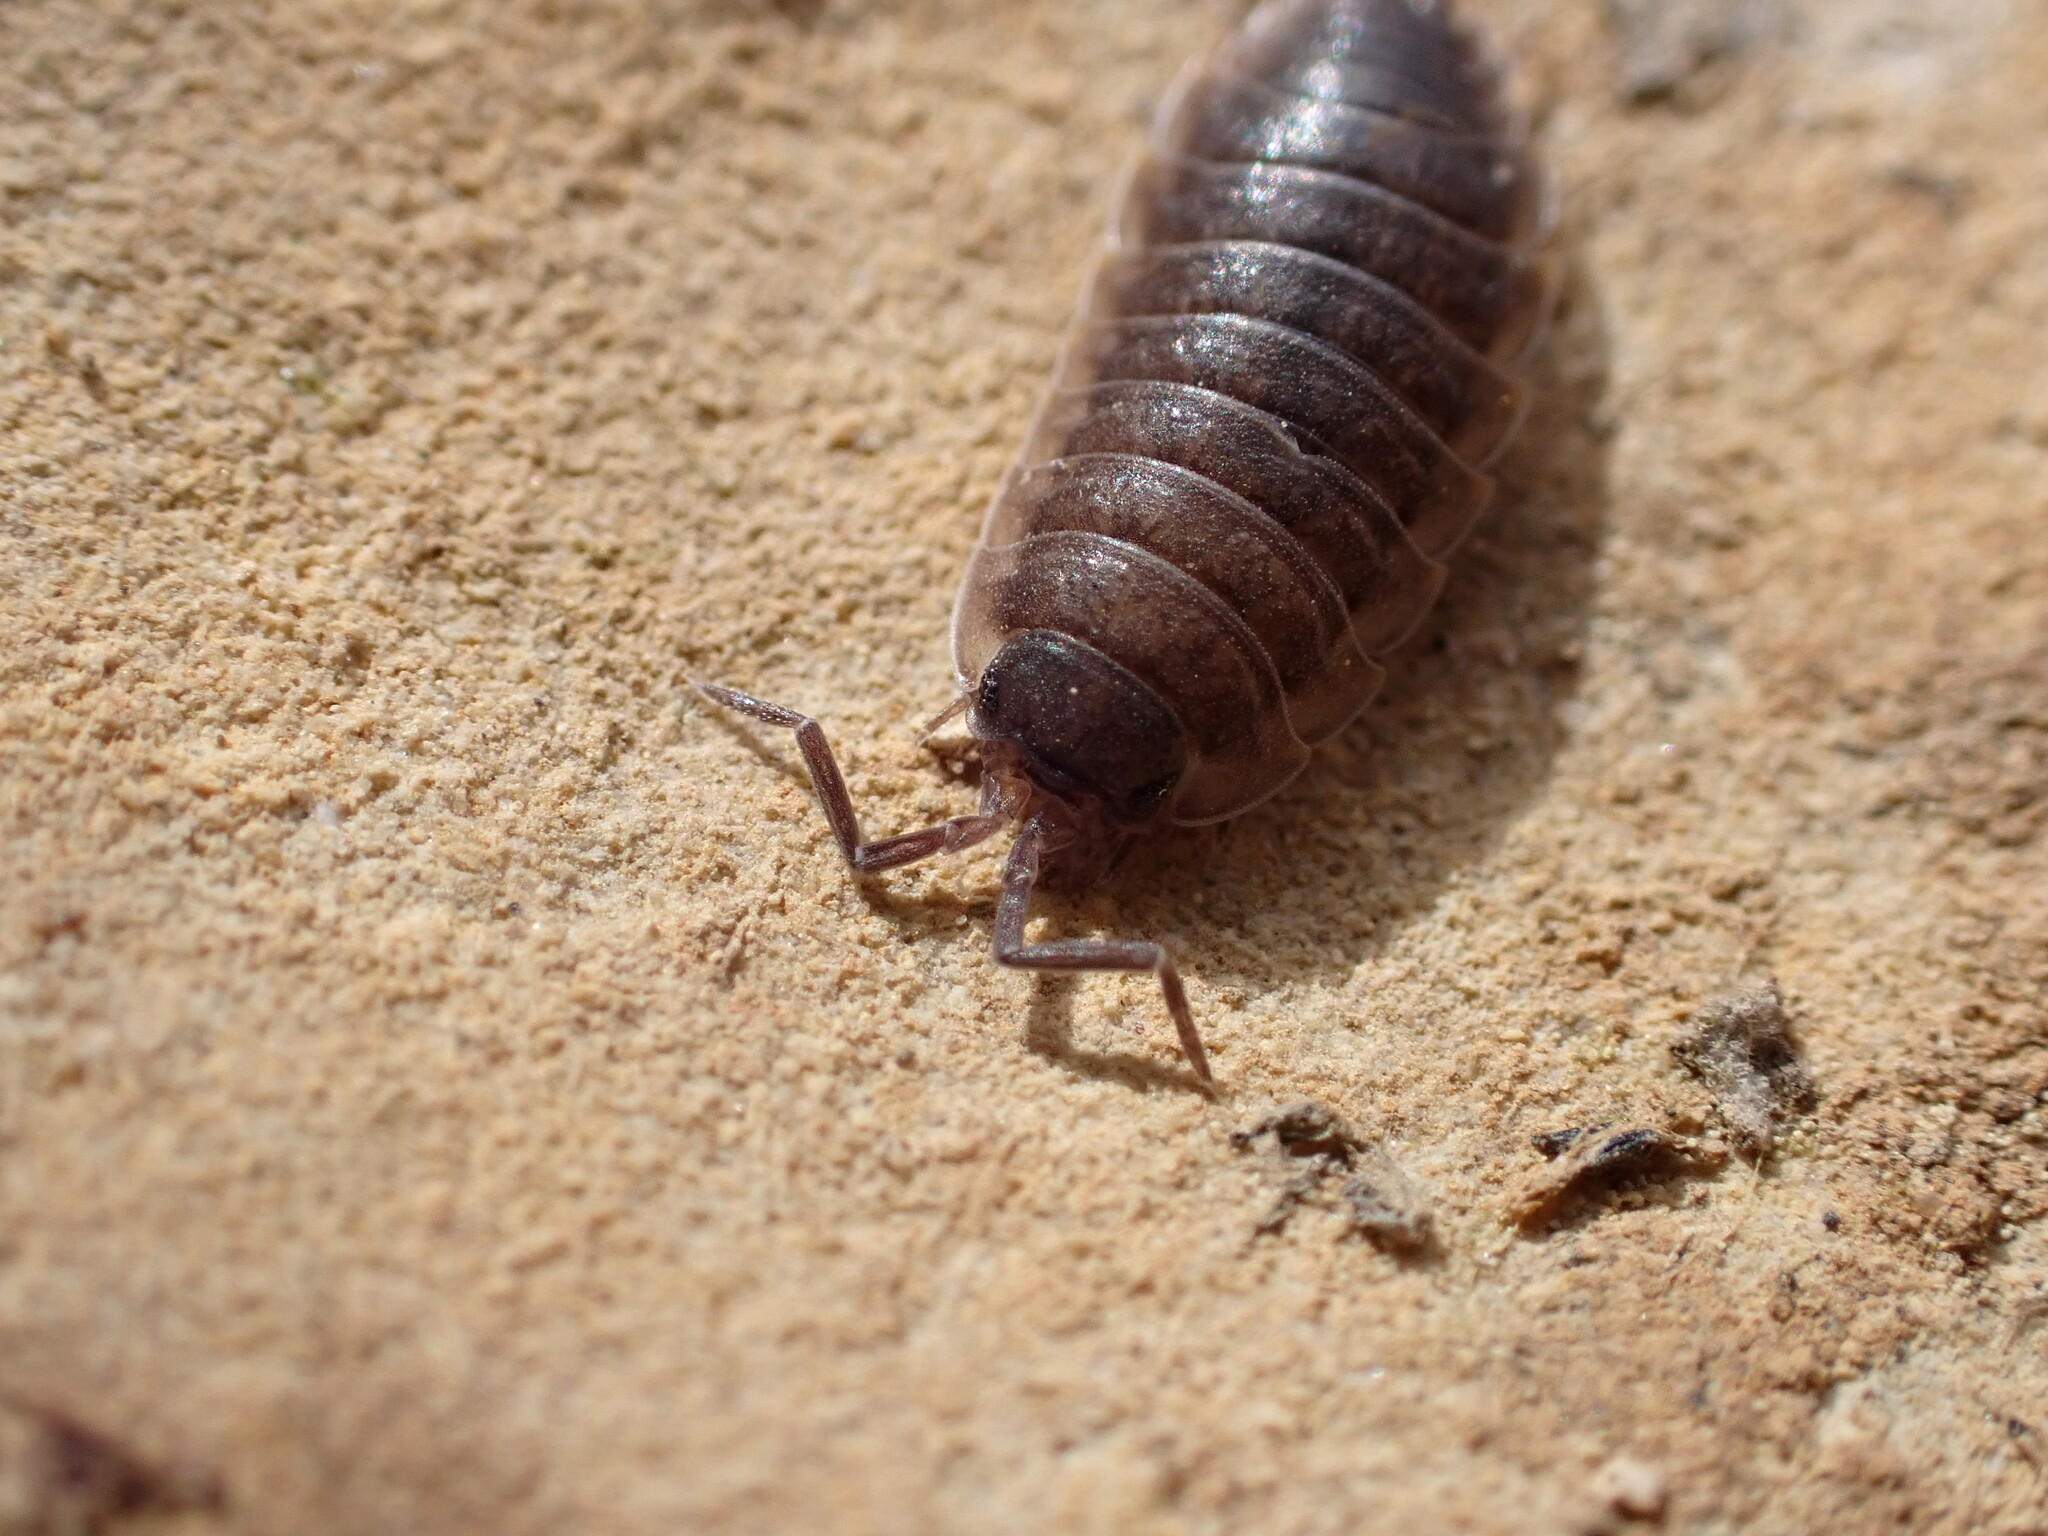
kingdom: Animalia
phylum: Arthropoda
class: Malacostraca
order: Isopoda
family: Porcellionidae
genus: Porcellio
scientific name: Porcellio orarum
